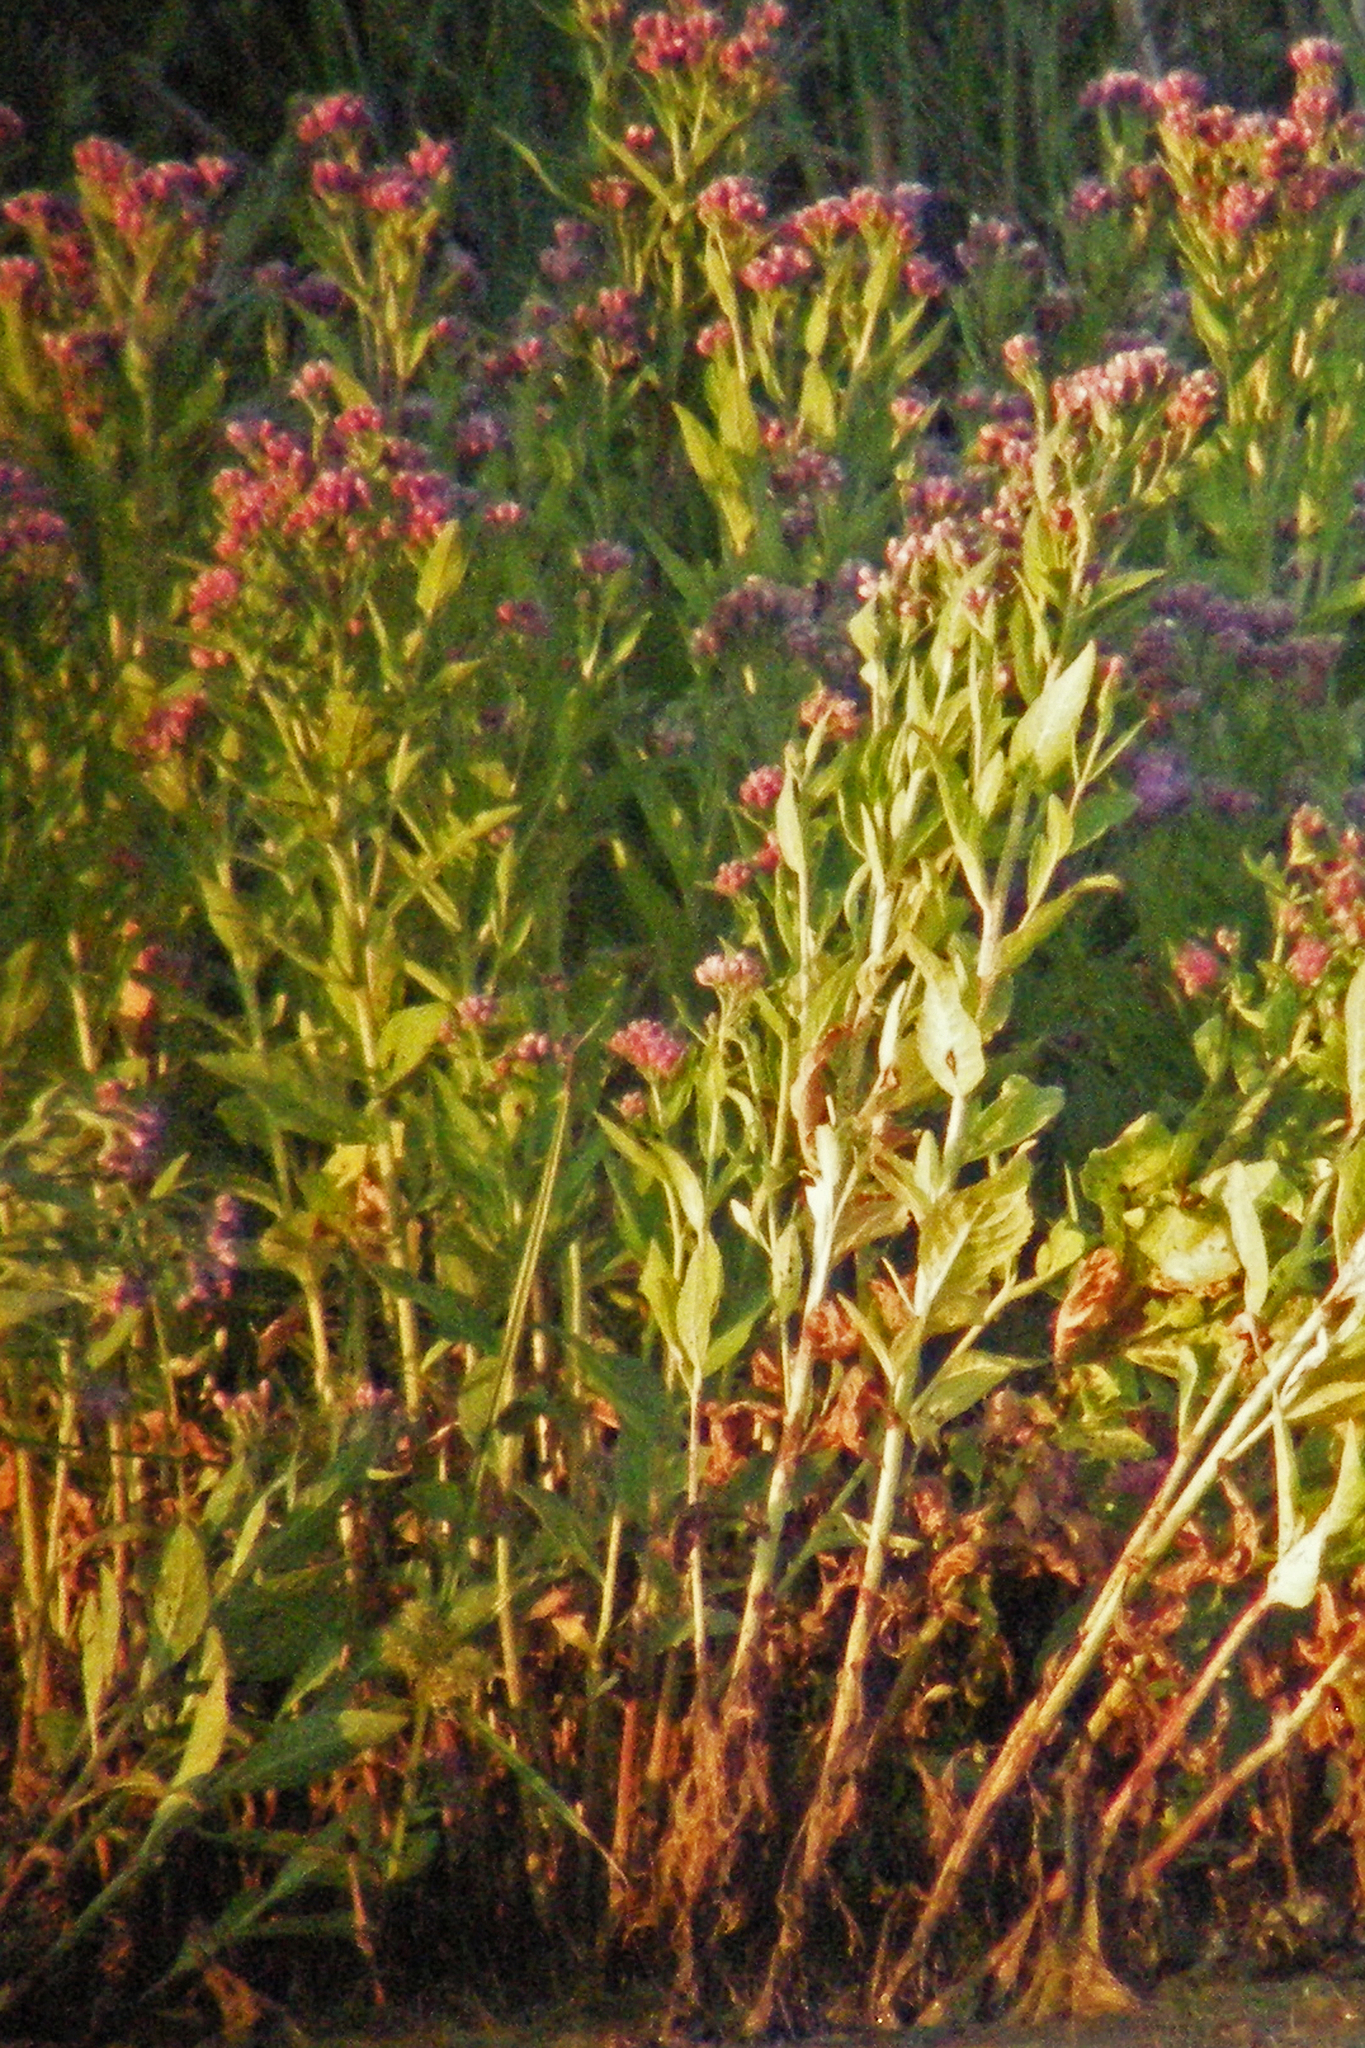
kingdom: Plantae
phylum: Tracheophyta
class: Magnoliopsida
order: Asterales
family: Asteraceae
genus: Pluchea
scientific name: Pluchea odorata
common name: Saltmarsh fleabane
